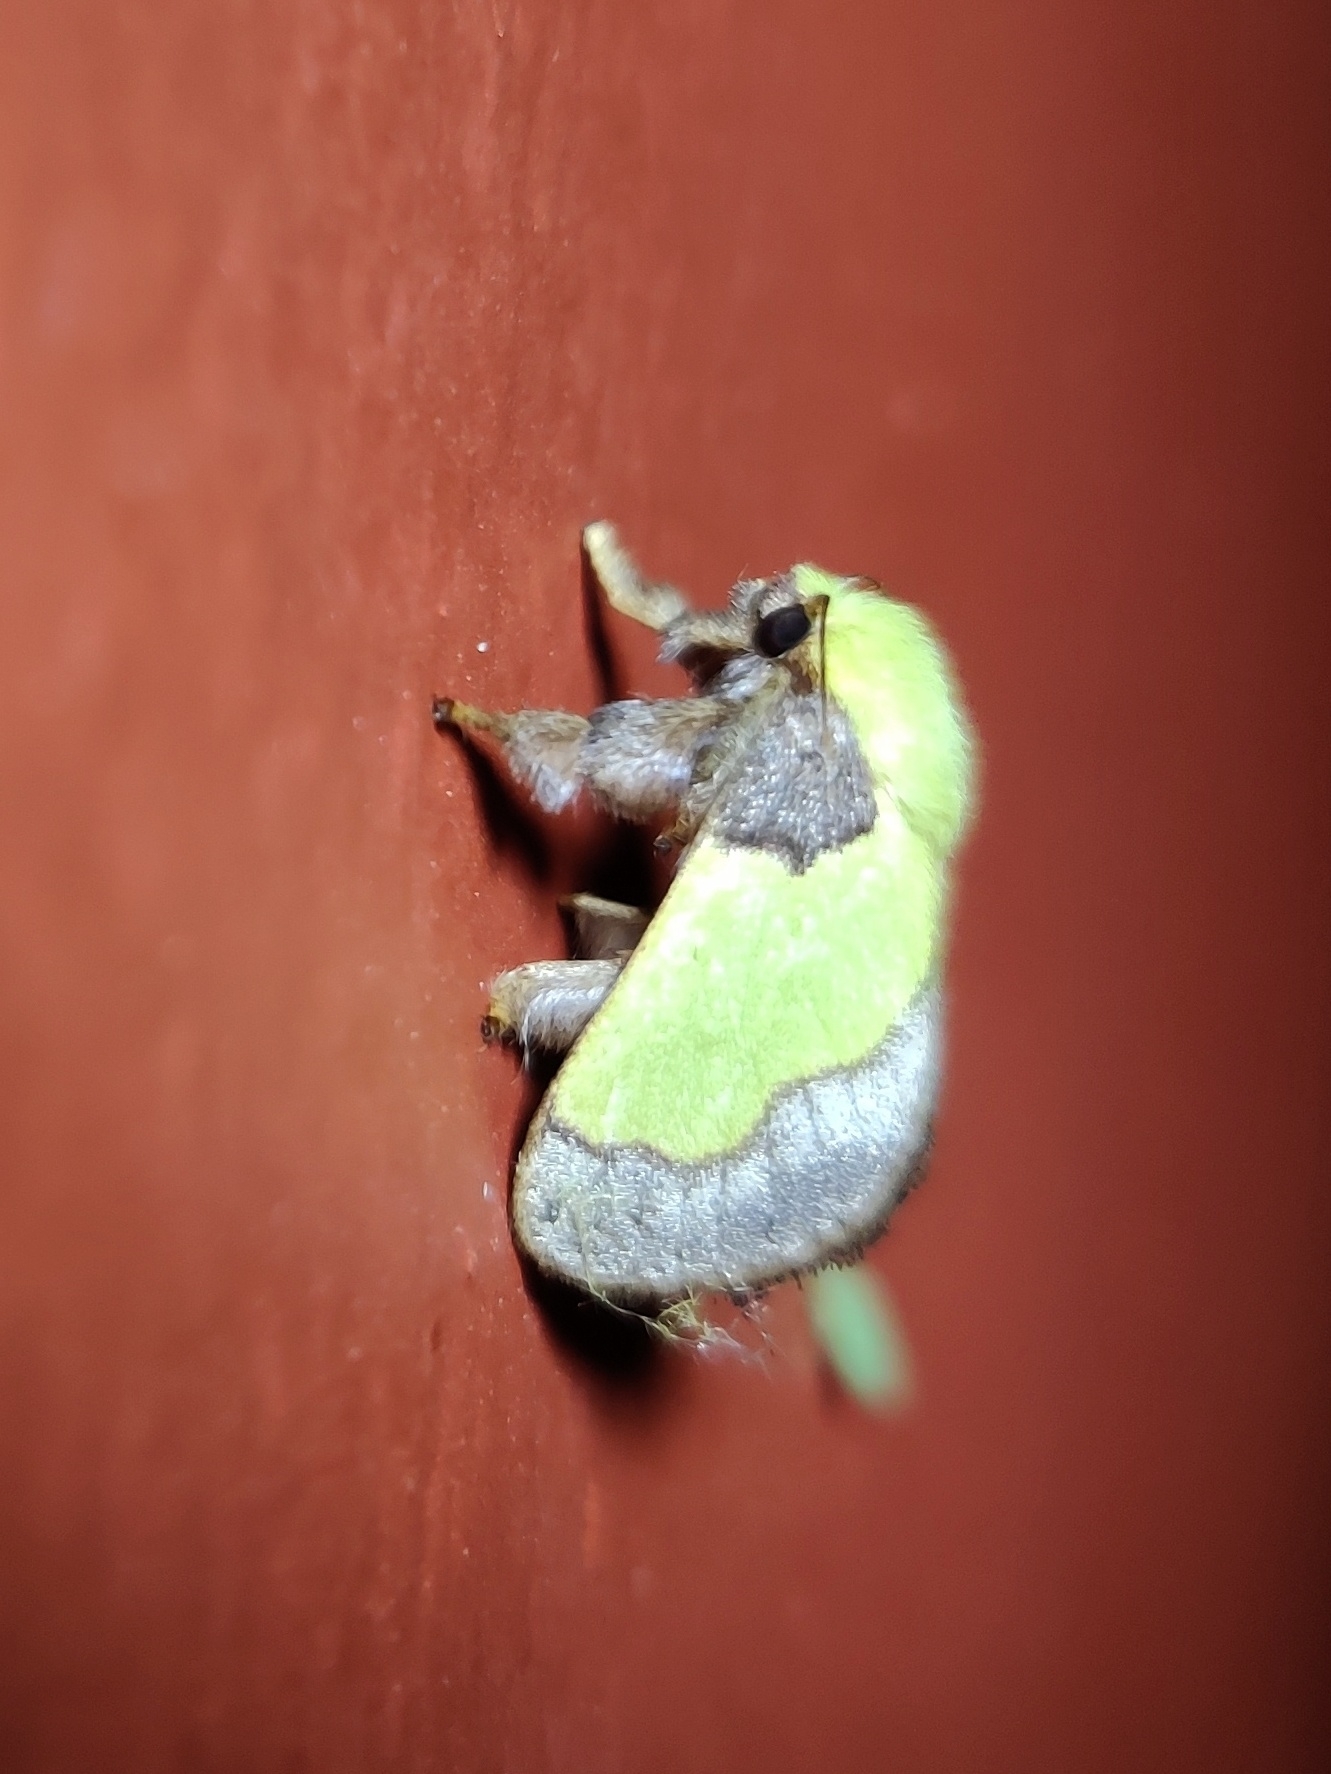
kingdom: Animalia
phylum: Arthropoda
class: Insecta
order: Lepidoptera
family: Limacodidae
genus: Aergina
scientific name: Aergina hilaris
